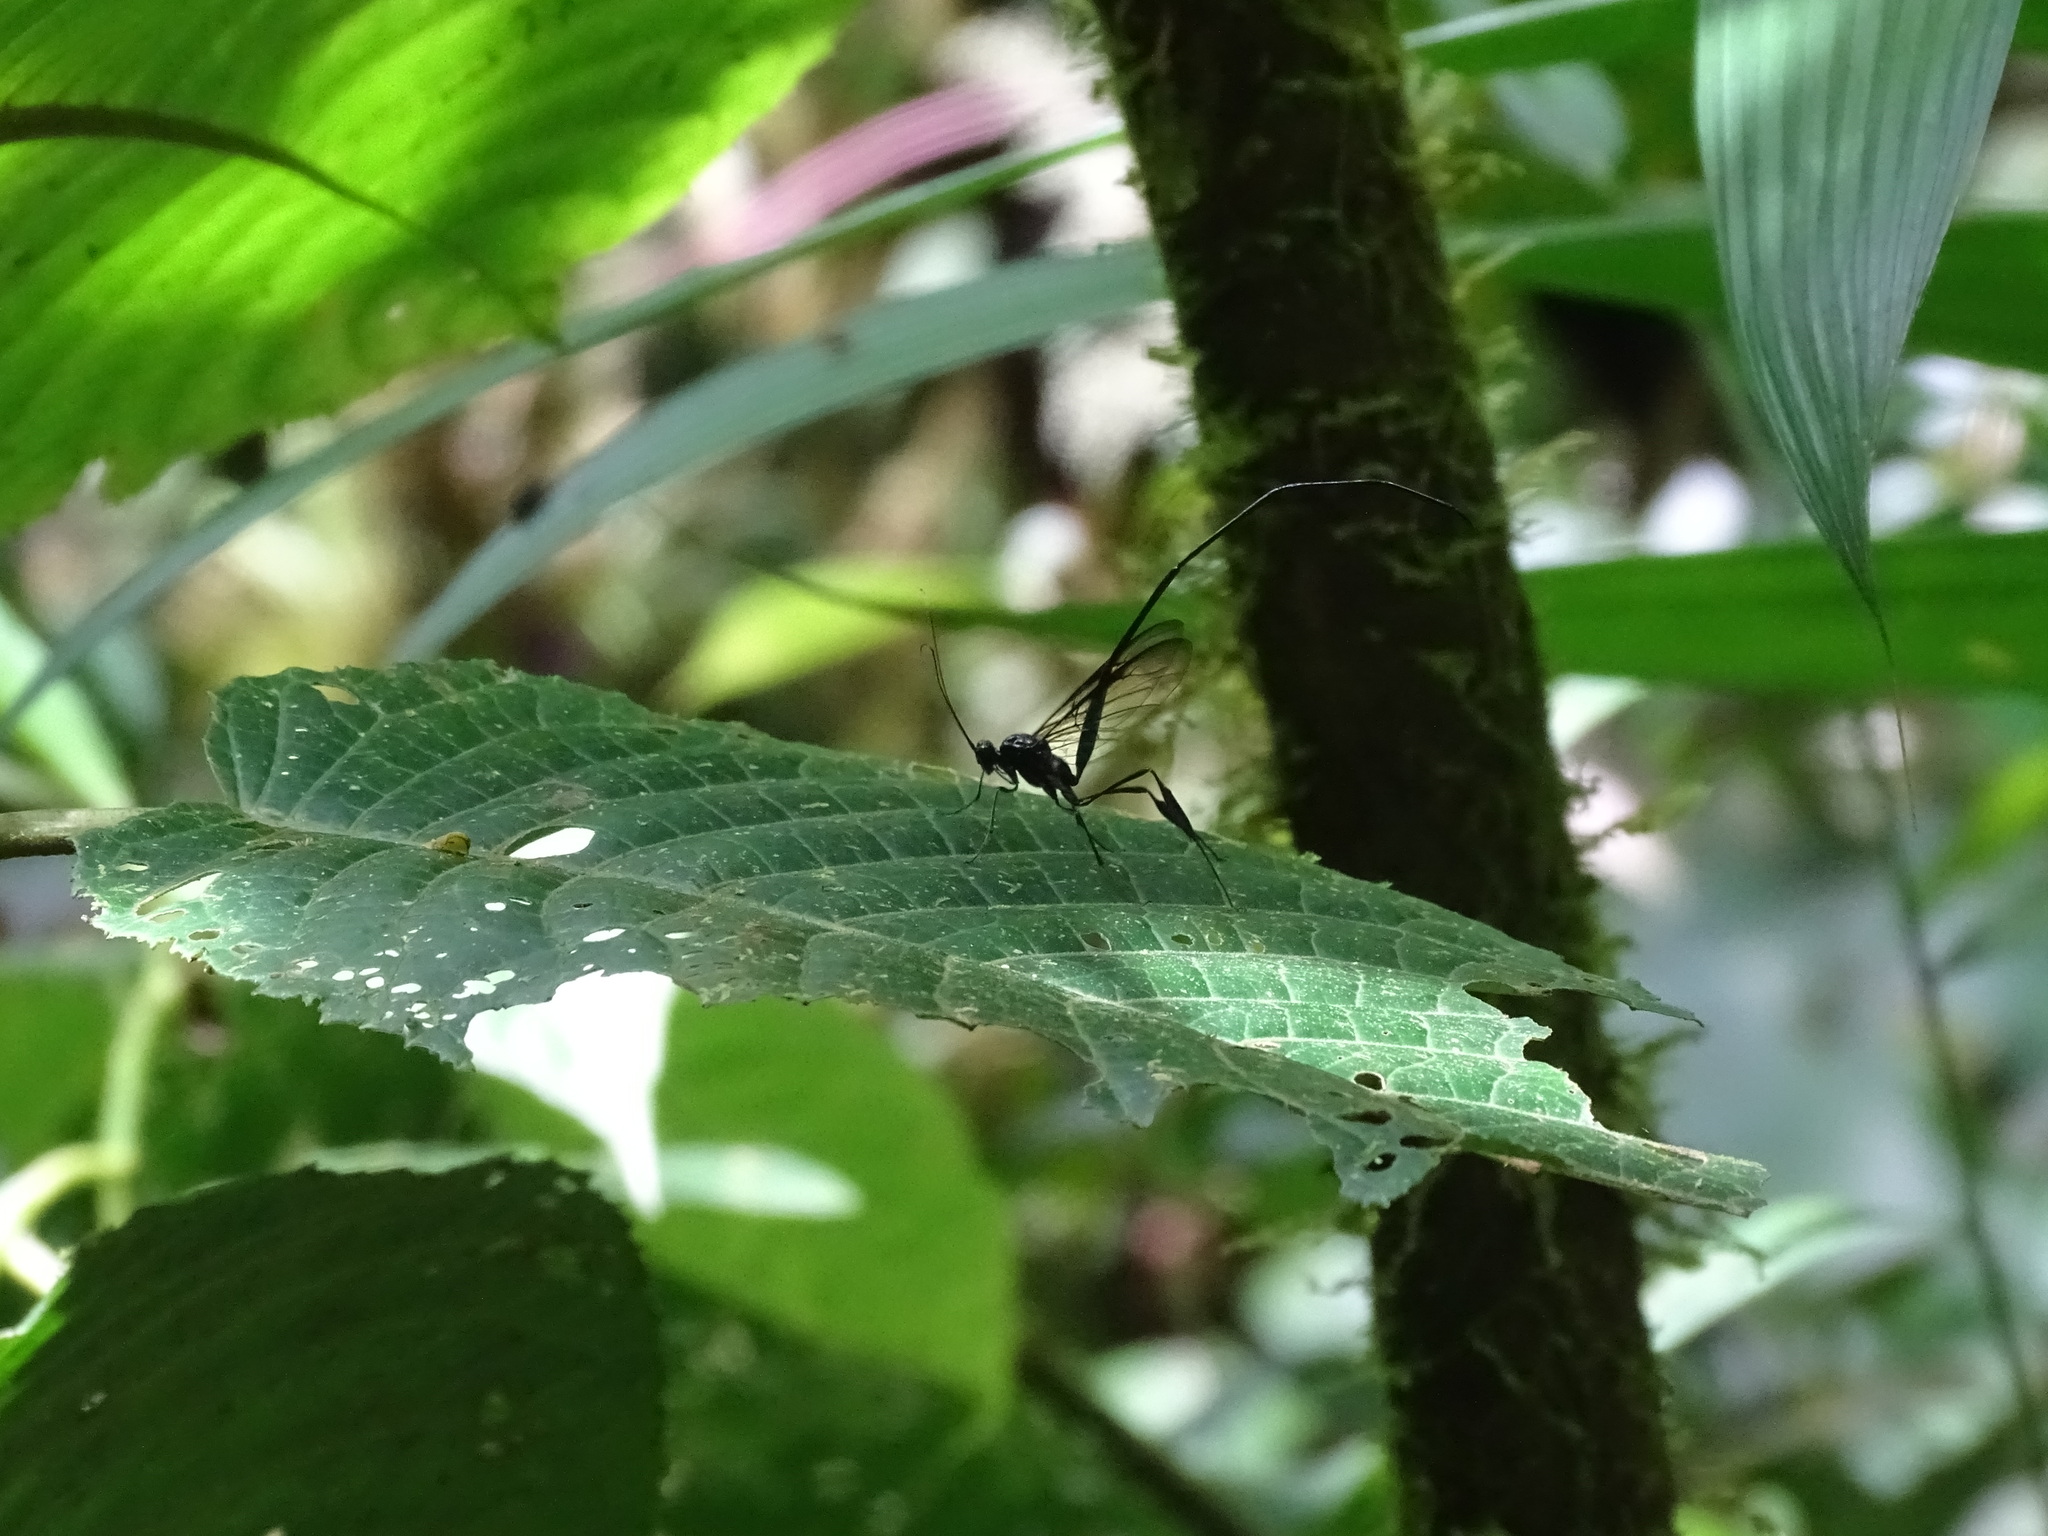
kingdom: Animalia
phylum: Arthropoda
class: Insecta
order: Hymenoptera
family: Pelecinidae
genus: Pelecinus
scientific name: Pelecinus polyturator
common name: American pelecinid wasp
